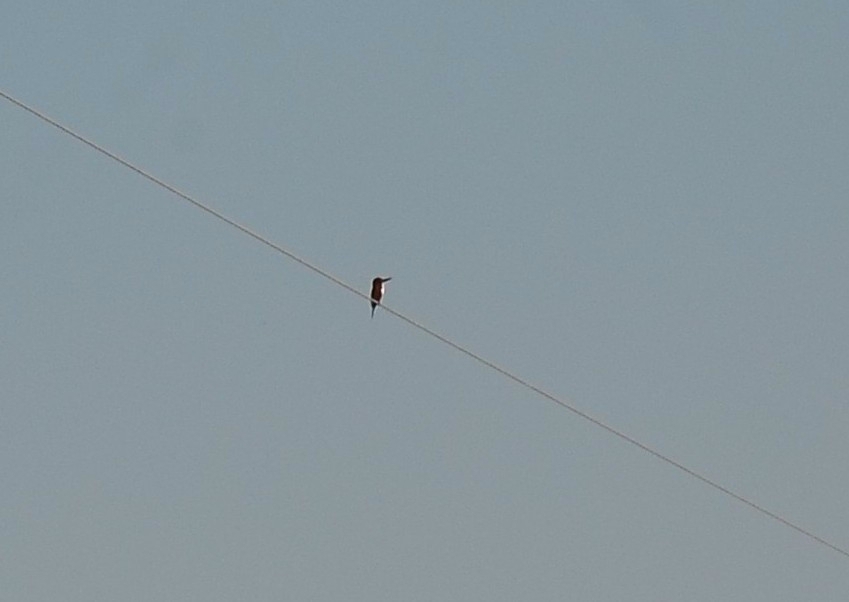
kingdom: Animalia
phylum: Chordata
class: Aves
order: Coraciiformes
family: Alcedinidae
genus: Halcyon
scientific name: Halcyon smyrnensis
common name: White-throated kingfisher
